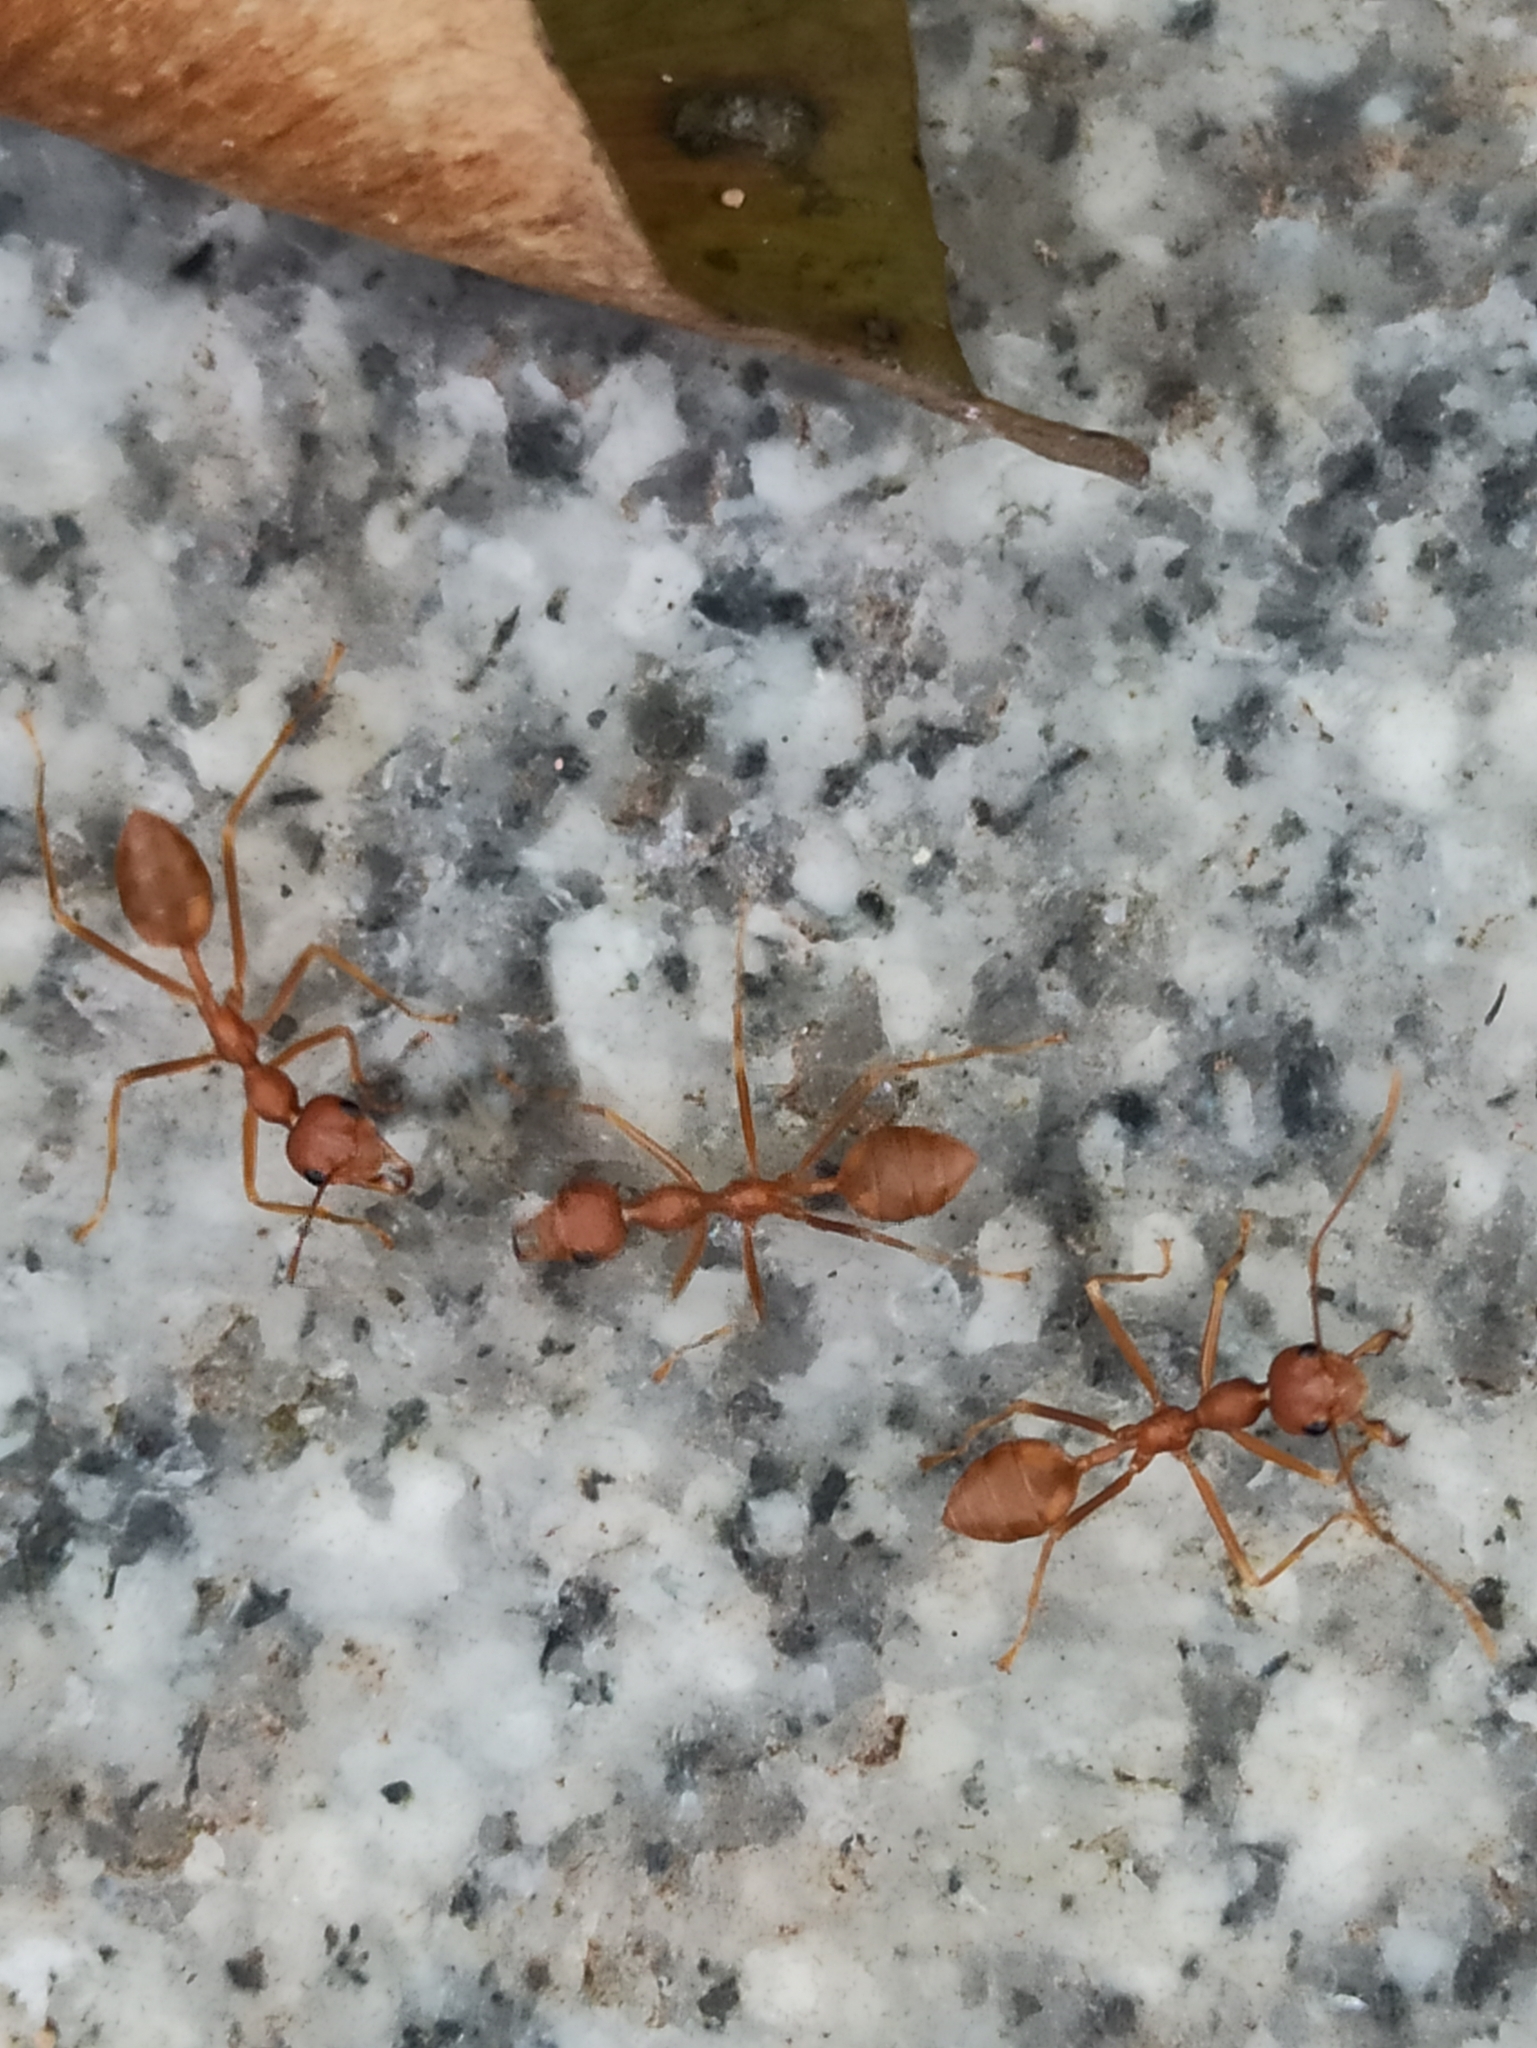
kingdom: Animalia
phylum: Arthropoda
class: Insecta
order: Hymenoptera
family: Formicidae
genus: Oecophylla
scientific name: Oecophylla smaragdina
